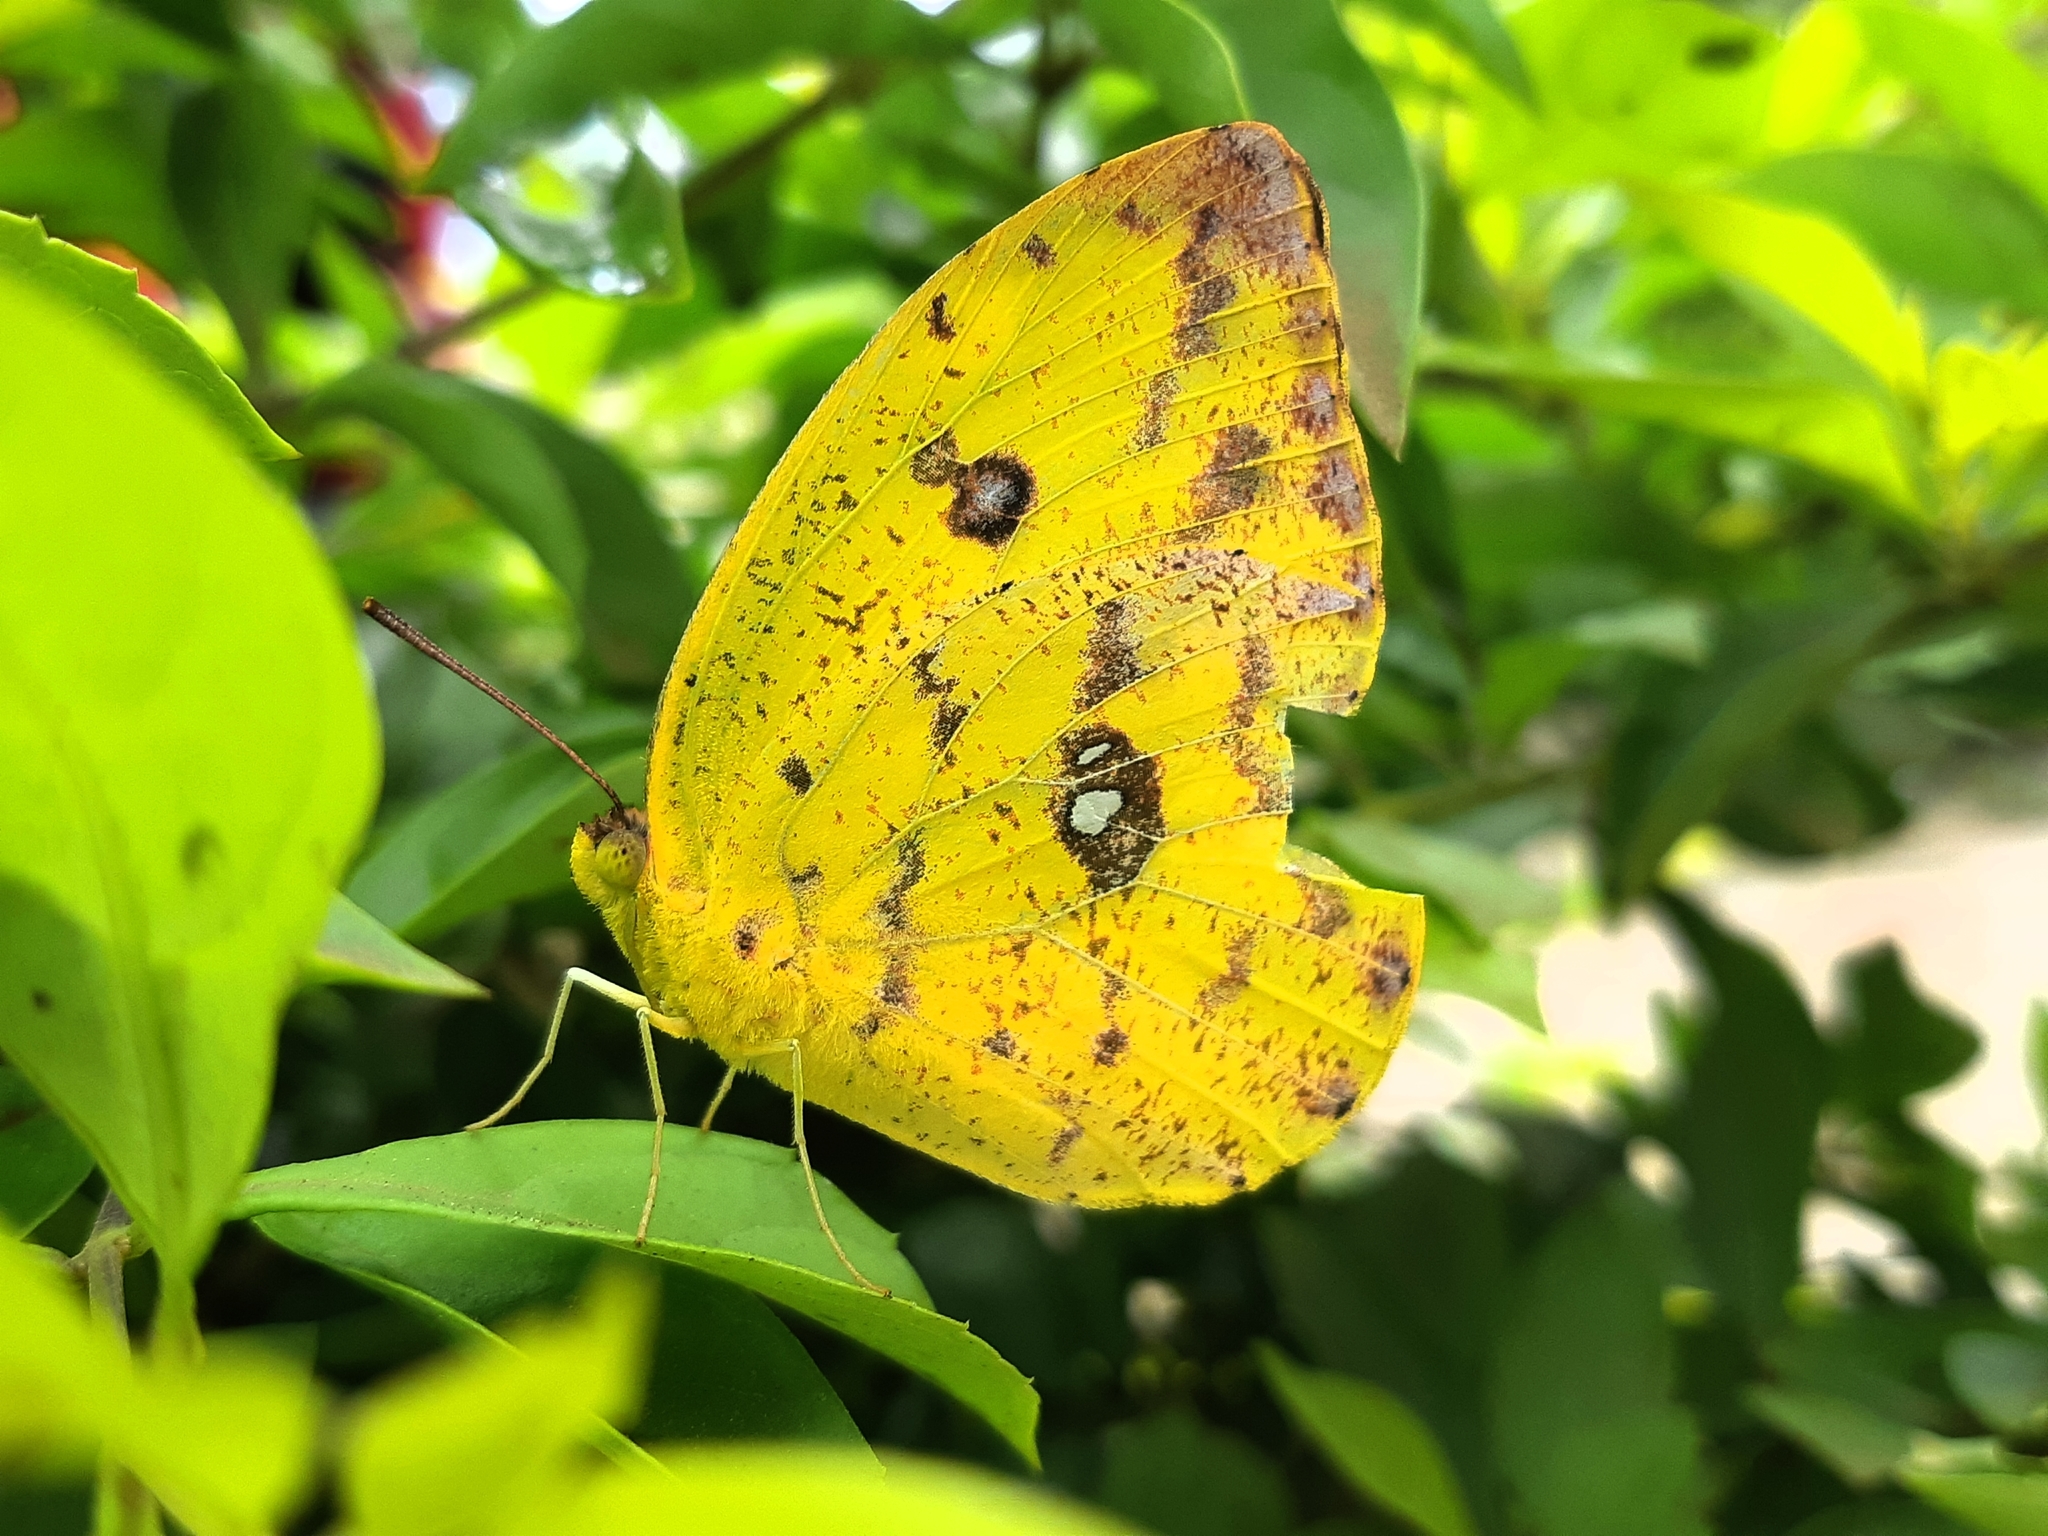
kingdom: Animalia
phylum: Arthropoda
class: Insecta
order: Lepidoptera
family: Pieridae
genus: Phoebis
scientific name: Phoebis argante
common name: Apricot sulphur
